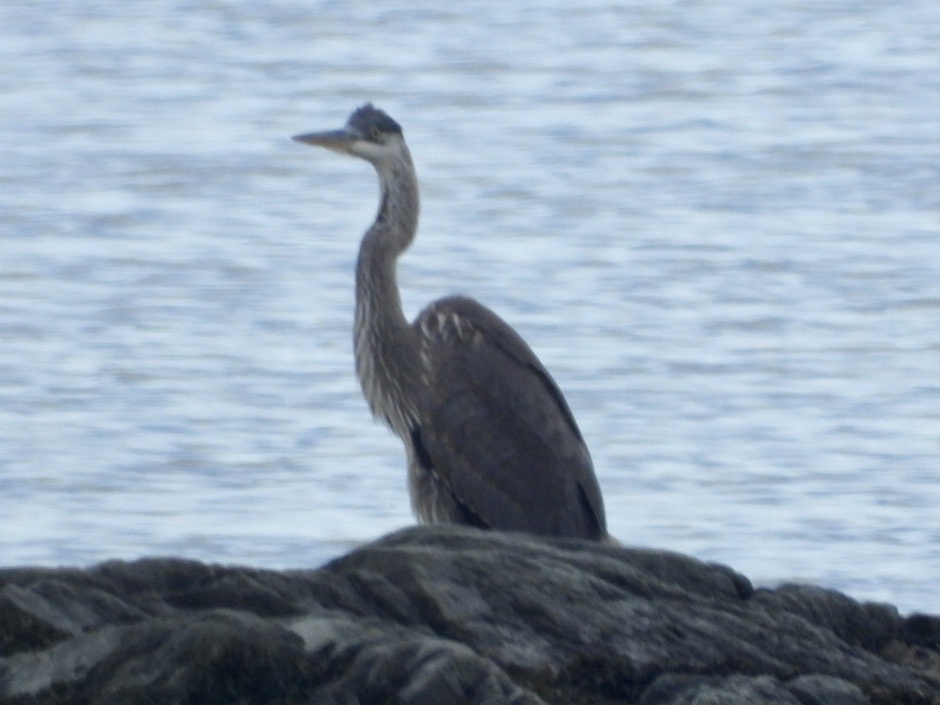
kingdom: Animalia
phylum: Chordata
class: Aves
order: Pelecaniformes
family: Ardeidae
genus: Ardea
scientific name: Ardea herodias
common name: Great blue heron
